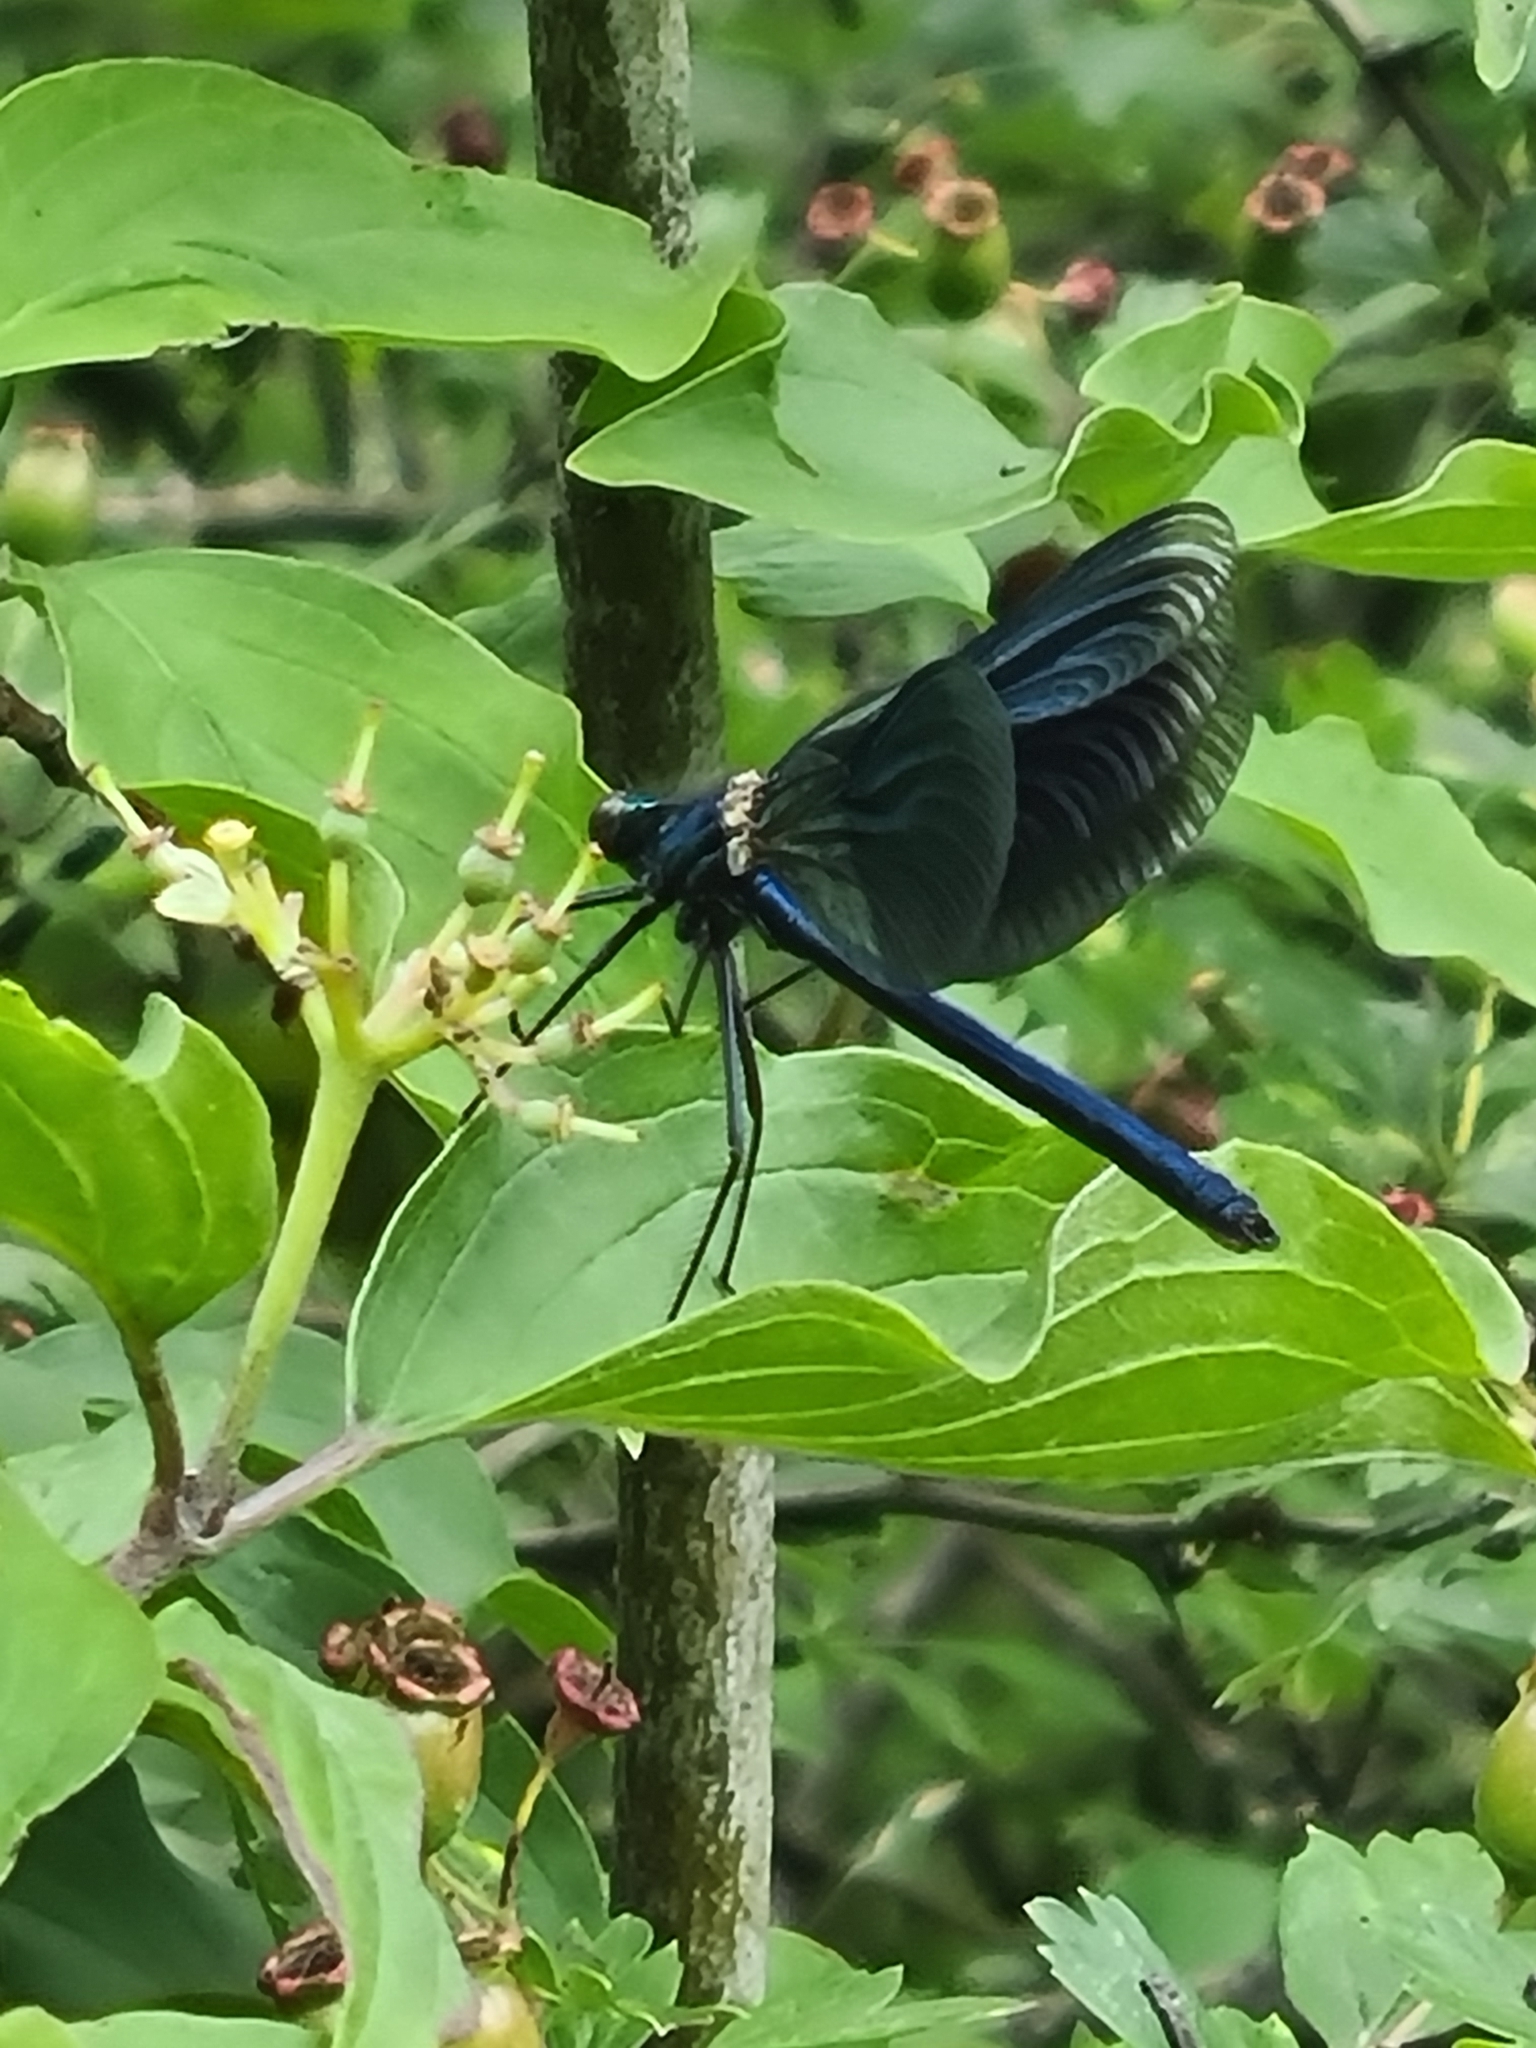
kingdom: Animalia
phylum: Arthropoda
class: Insecta
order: Odonata
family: Calopterygidae
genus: Calopteryx
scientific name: Calopteryx splendens
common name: Banded demoiselle
